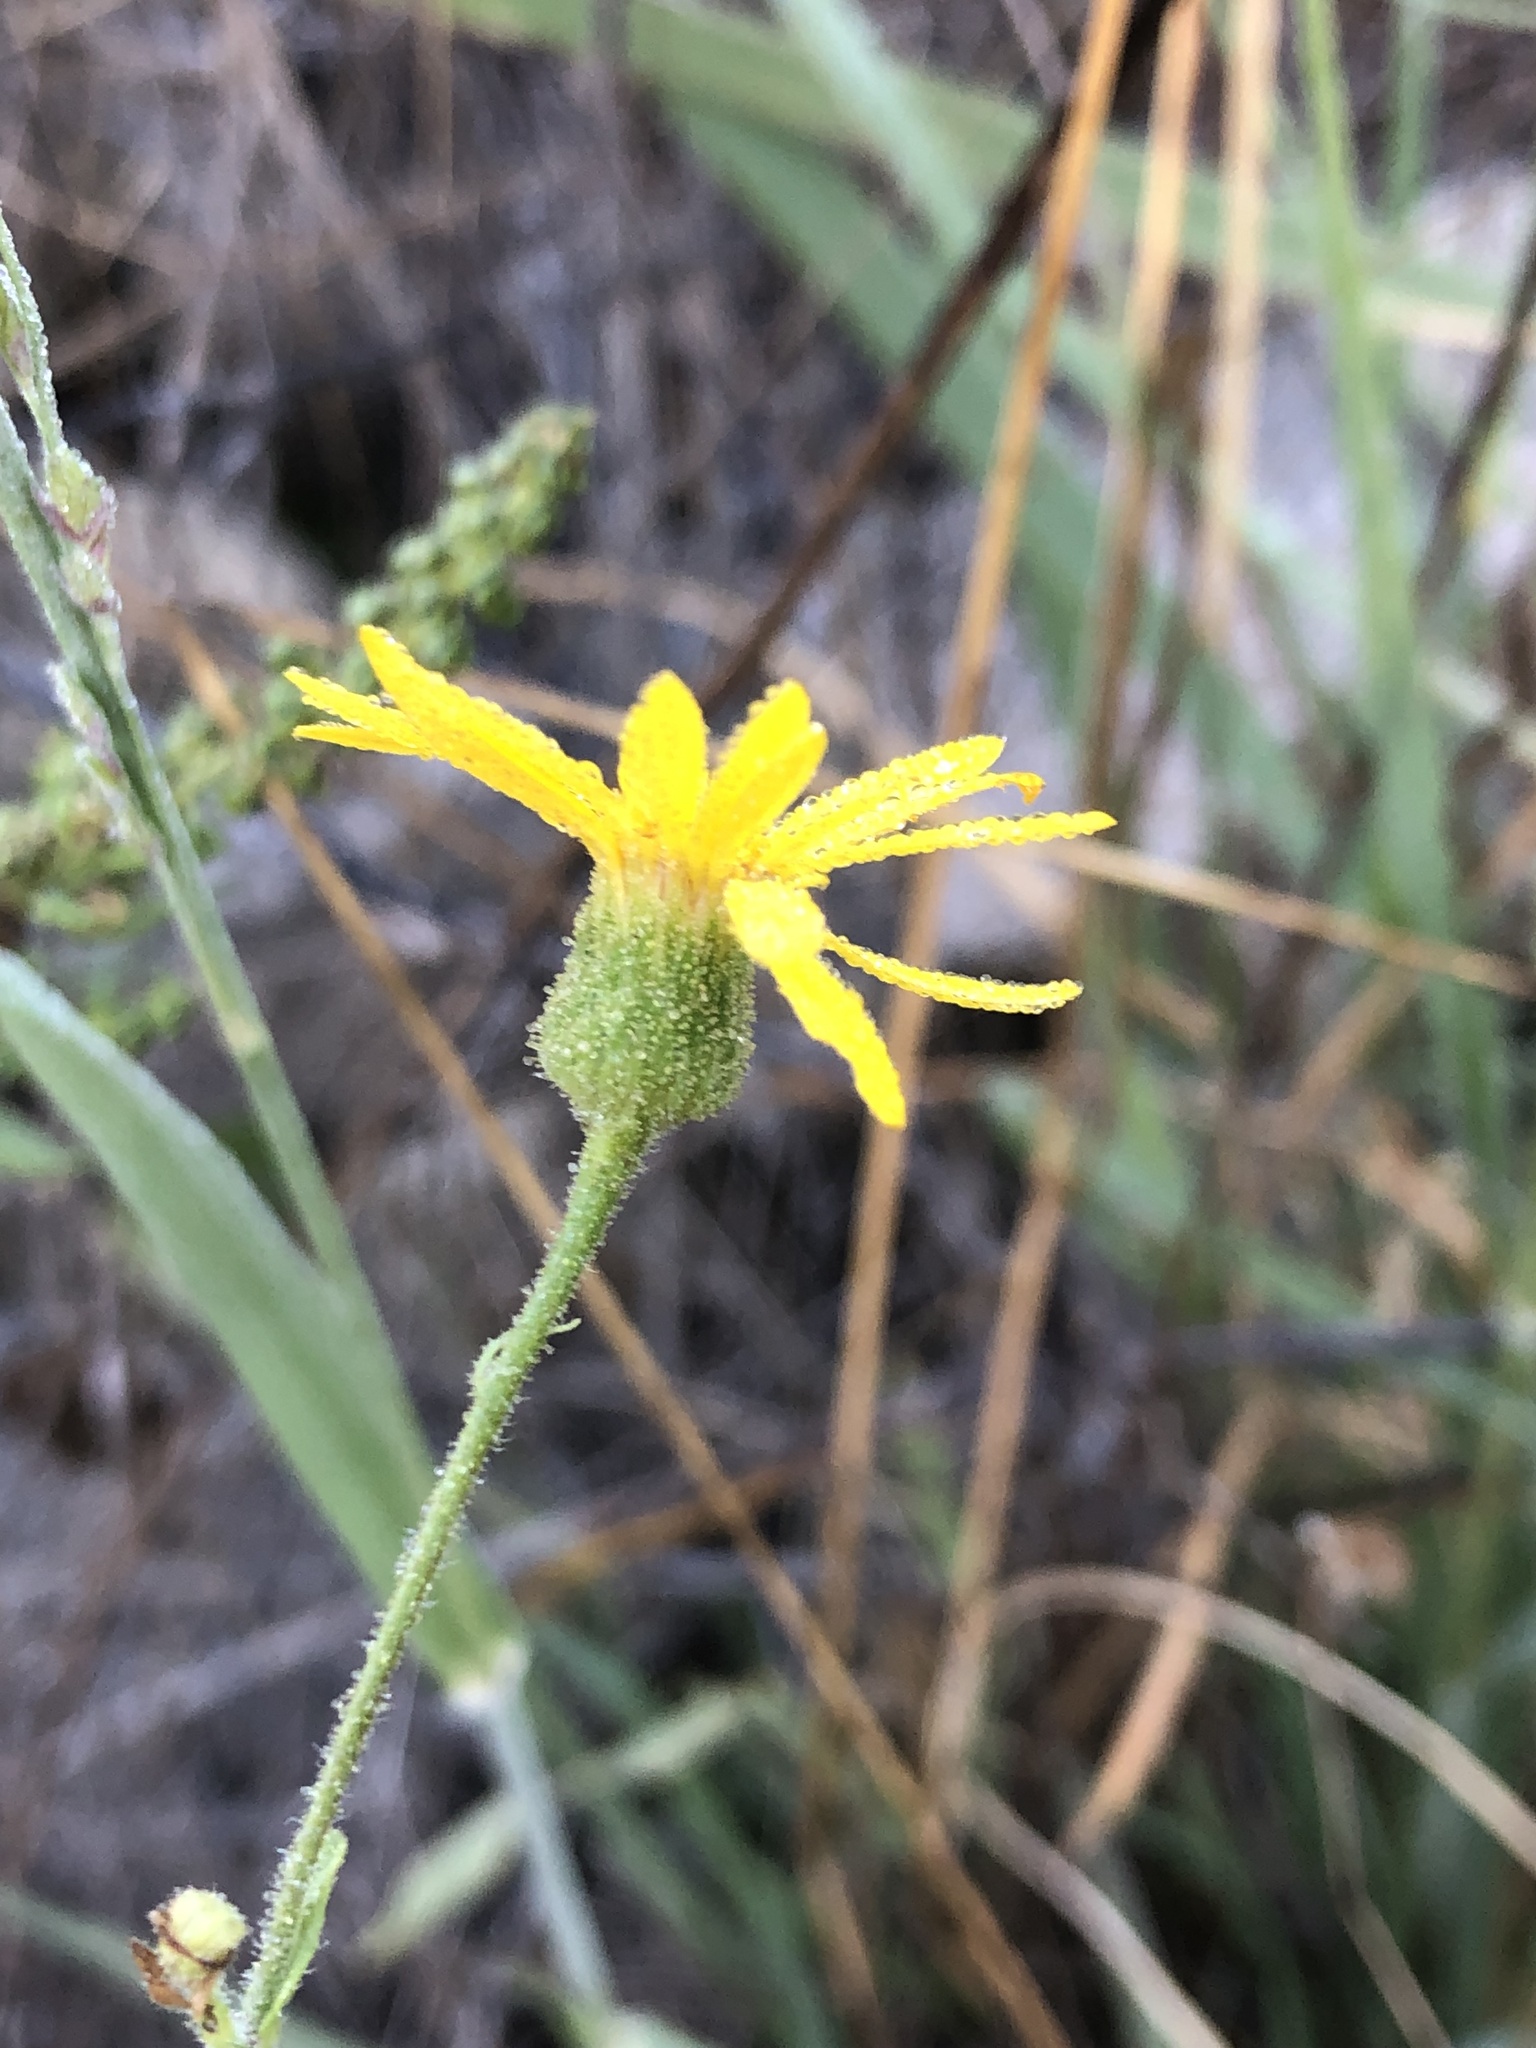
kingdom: Plantae
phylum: Tracheophyta
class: Magnoliopsida
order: Asterales
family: Asteraceae
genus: Heterotheca
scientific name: Heterotheca subaxillaris
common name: Camphorweed
